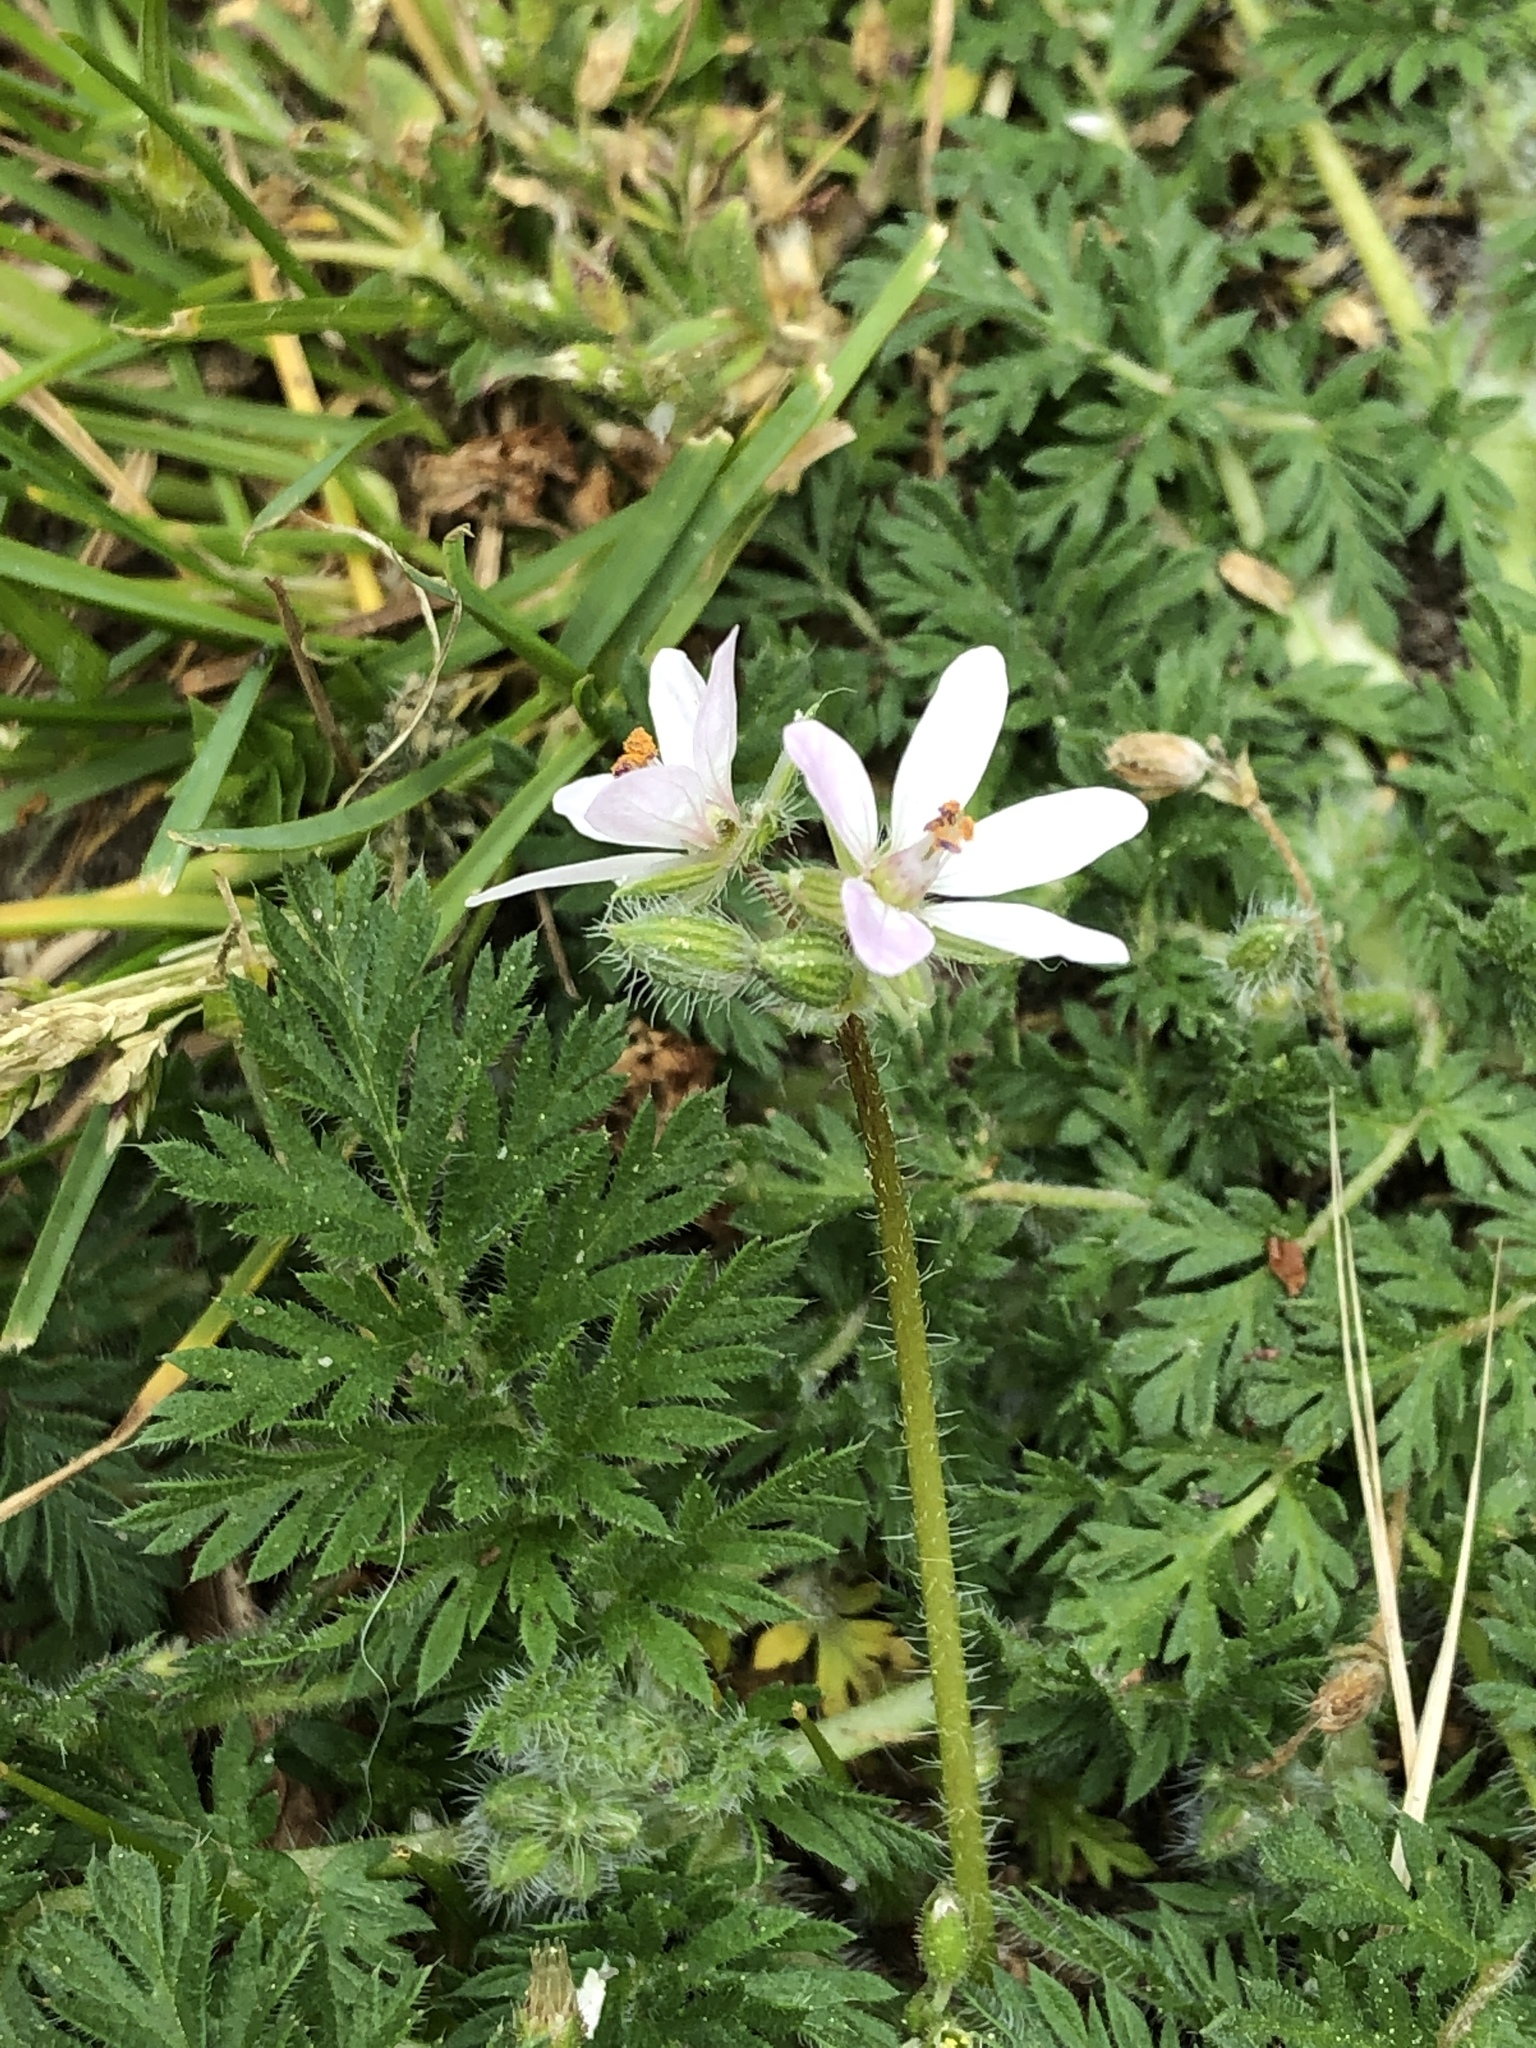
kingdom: Plantae
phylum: Tracheophyta
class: Magnoliopsida
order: Geraniales
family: Geraniaceae
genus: Erodium
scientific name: Erodium cicutarium
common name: Common stork's-bill
